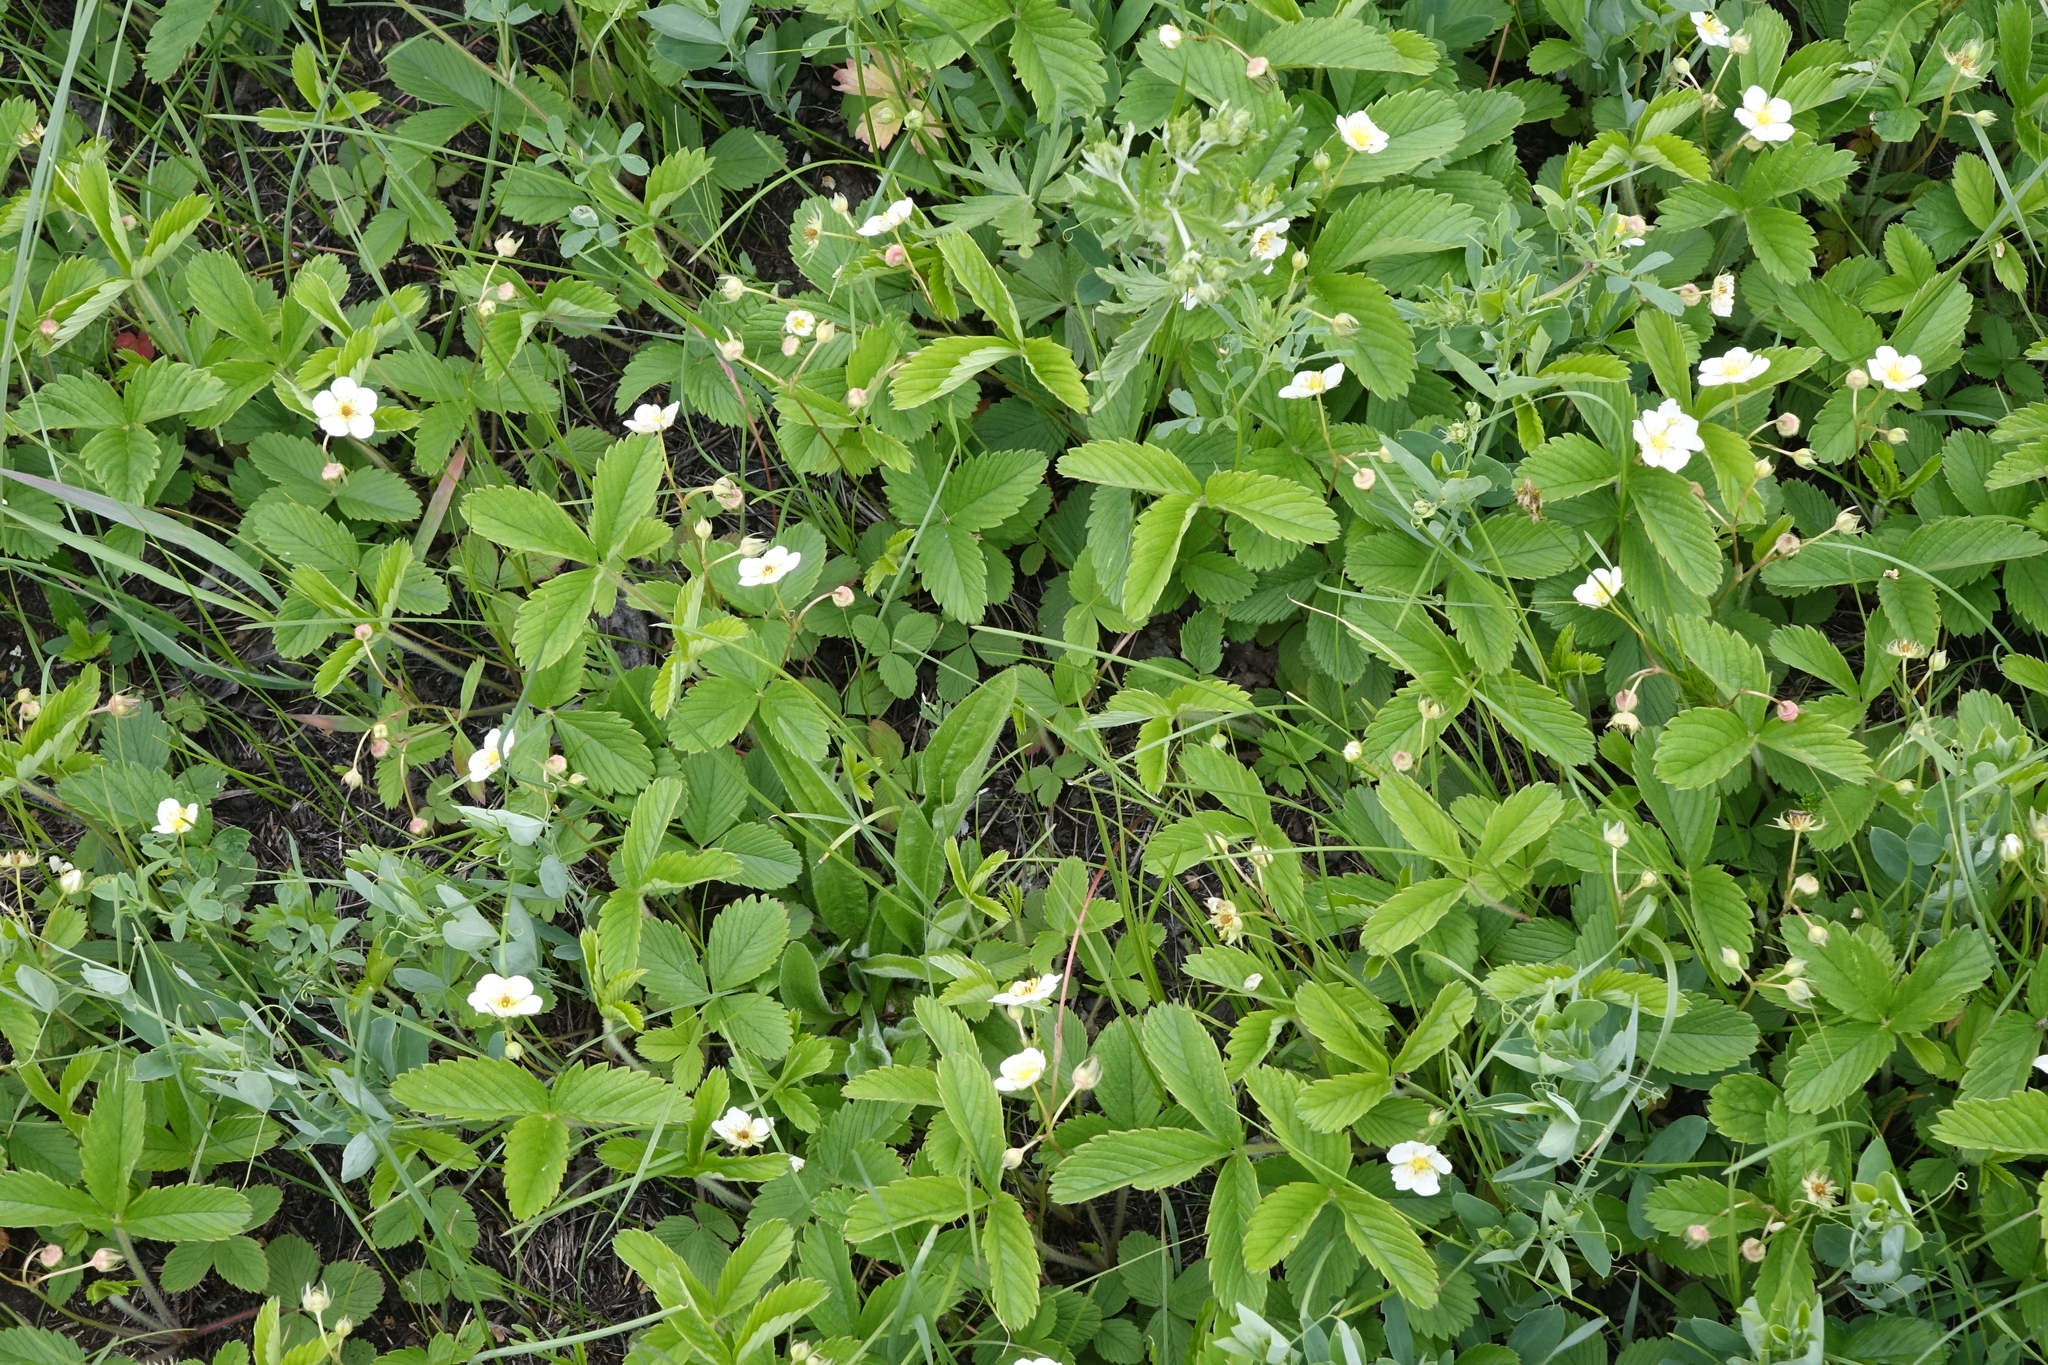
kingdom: Plantae
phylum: Tracheophyta
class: Magnoliopsida
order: Rosales
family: Rosaceae
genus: Fragaria
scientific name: Fragaria viridis
